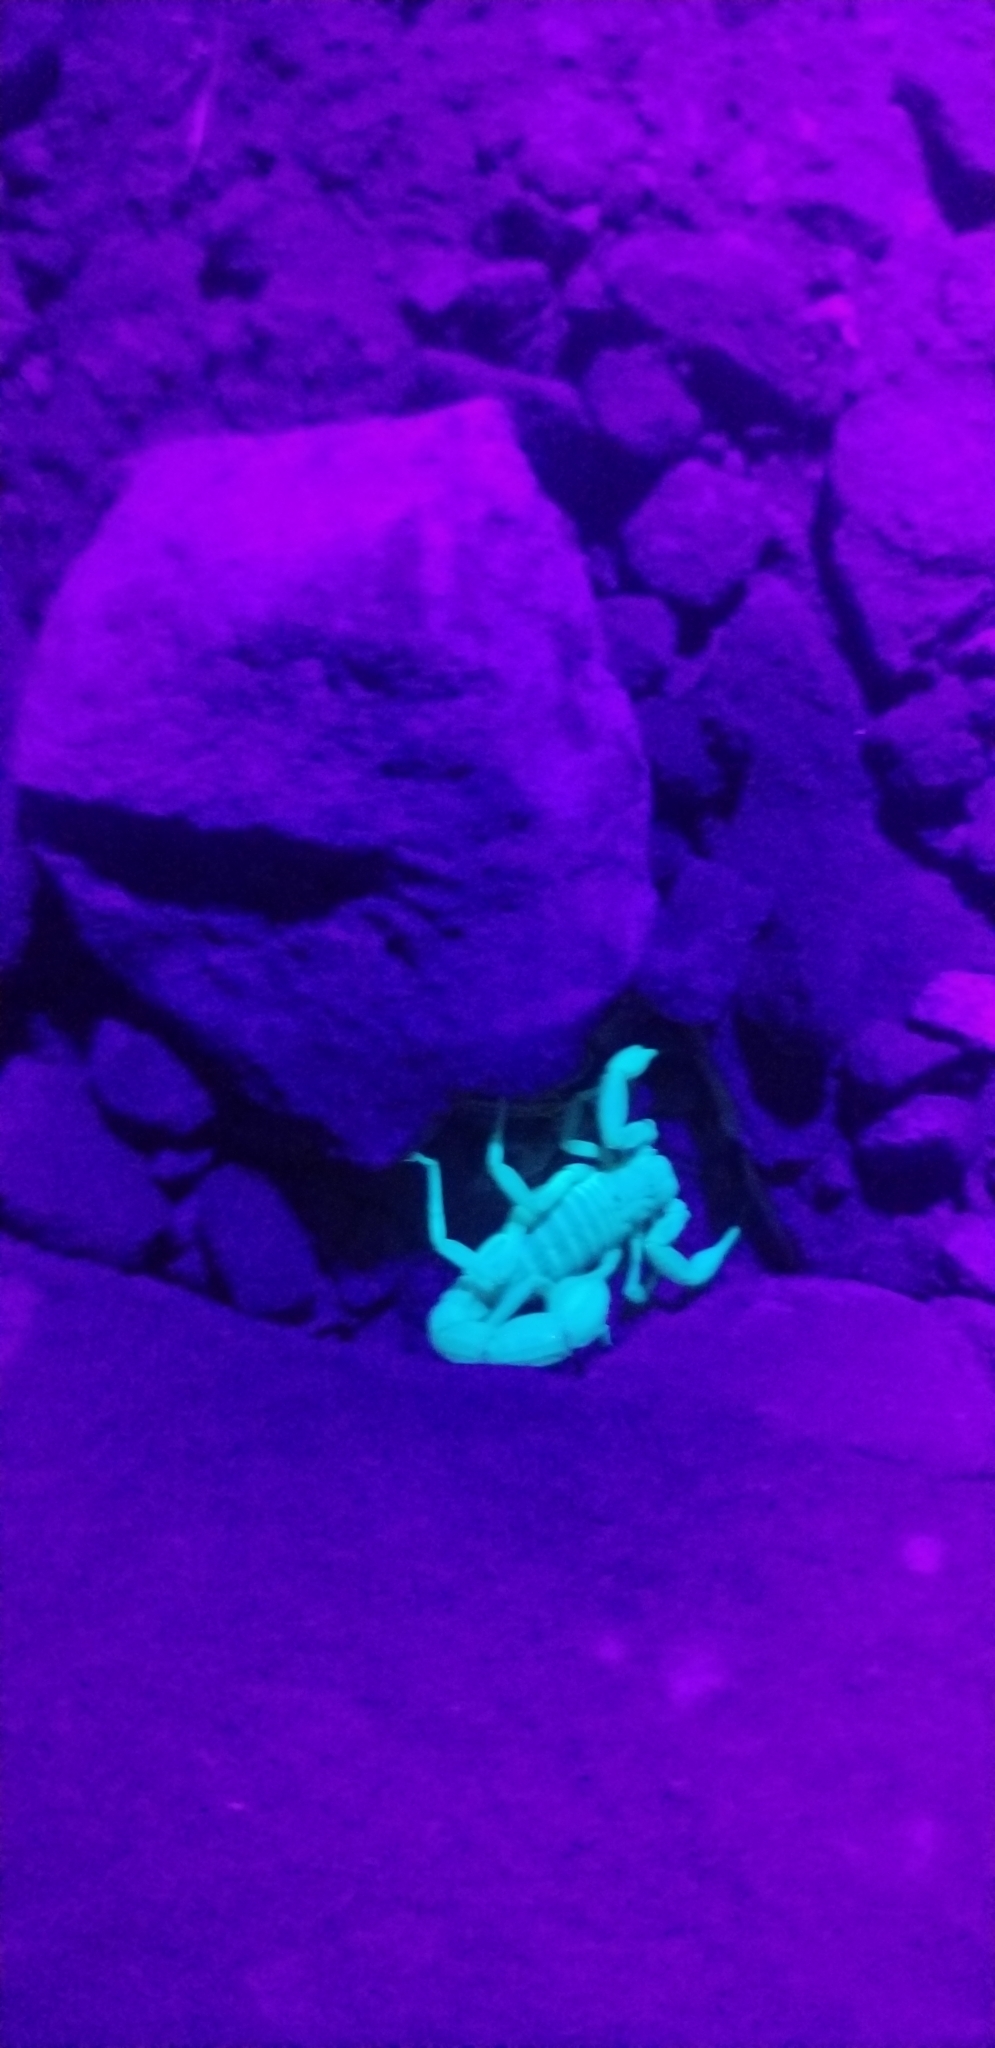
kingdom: Animalia
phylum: Arthropoda
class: Arachnida
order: Scorpiones
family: Vaejovidae
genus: Paravaejovis
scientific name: Paravaejovis confusus
